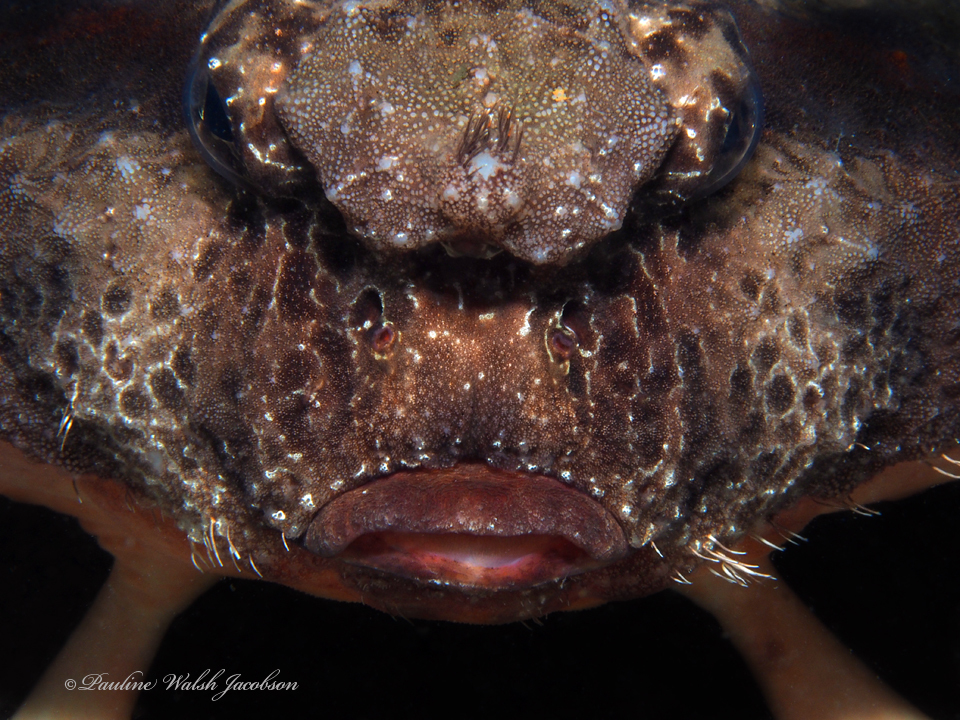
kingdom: Animalia
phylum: Chordata
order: Lophiiformes
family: Ogcocephalidae
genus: Ogcocephalus
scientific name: Ogcocephalus cubifrons
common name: Polka-dot batfish
